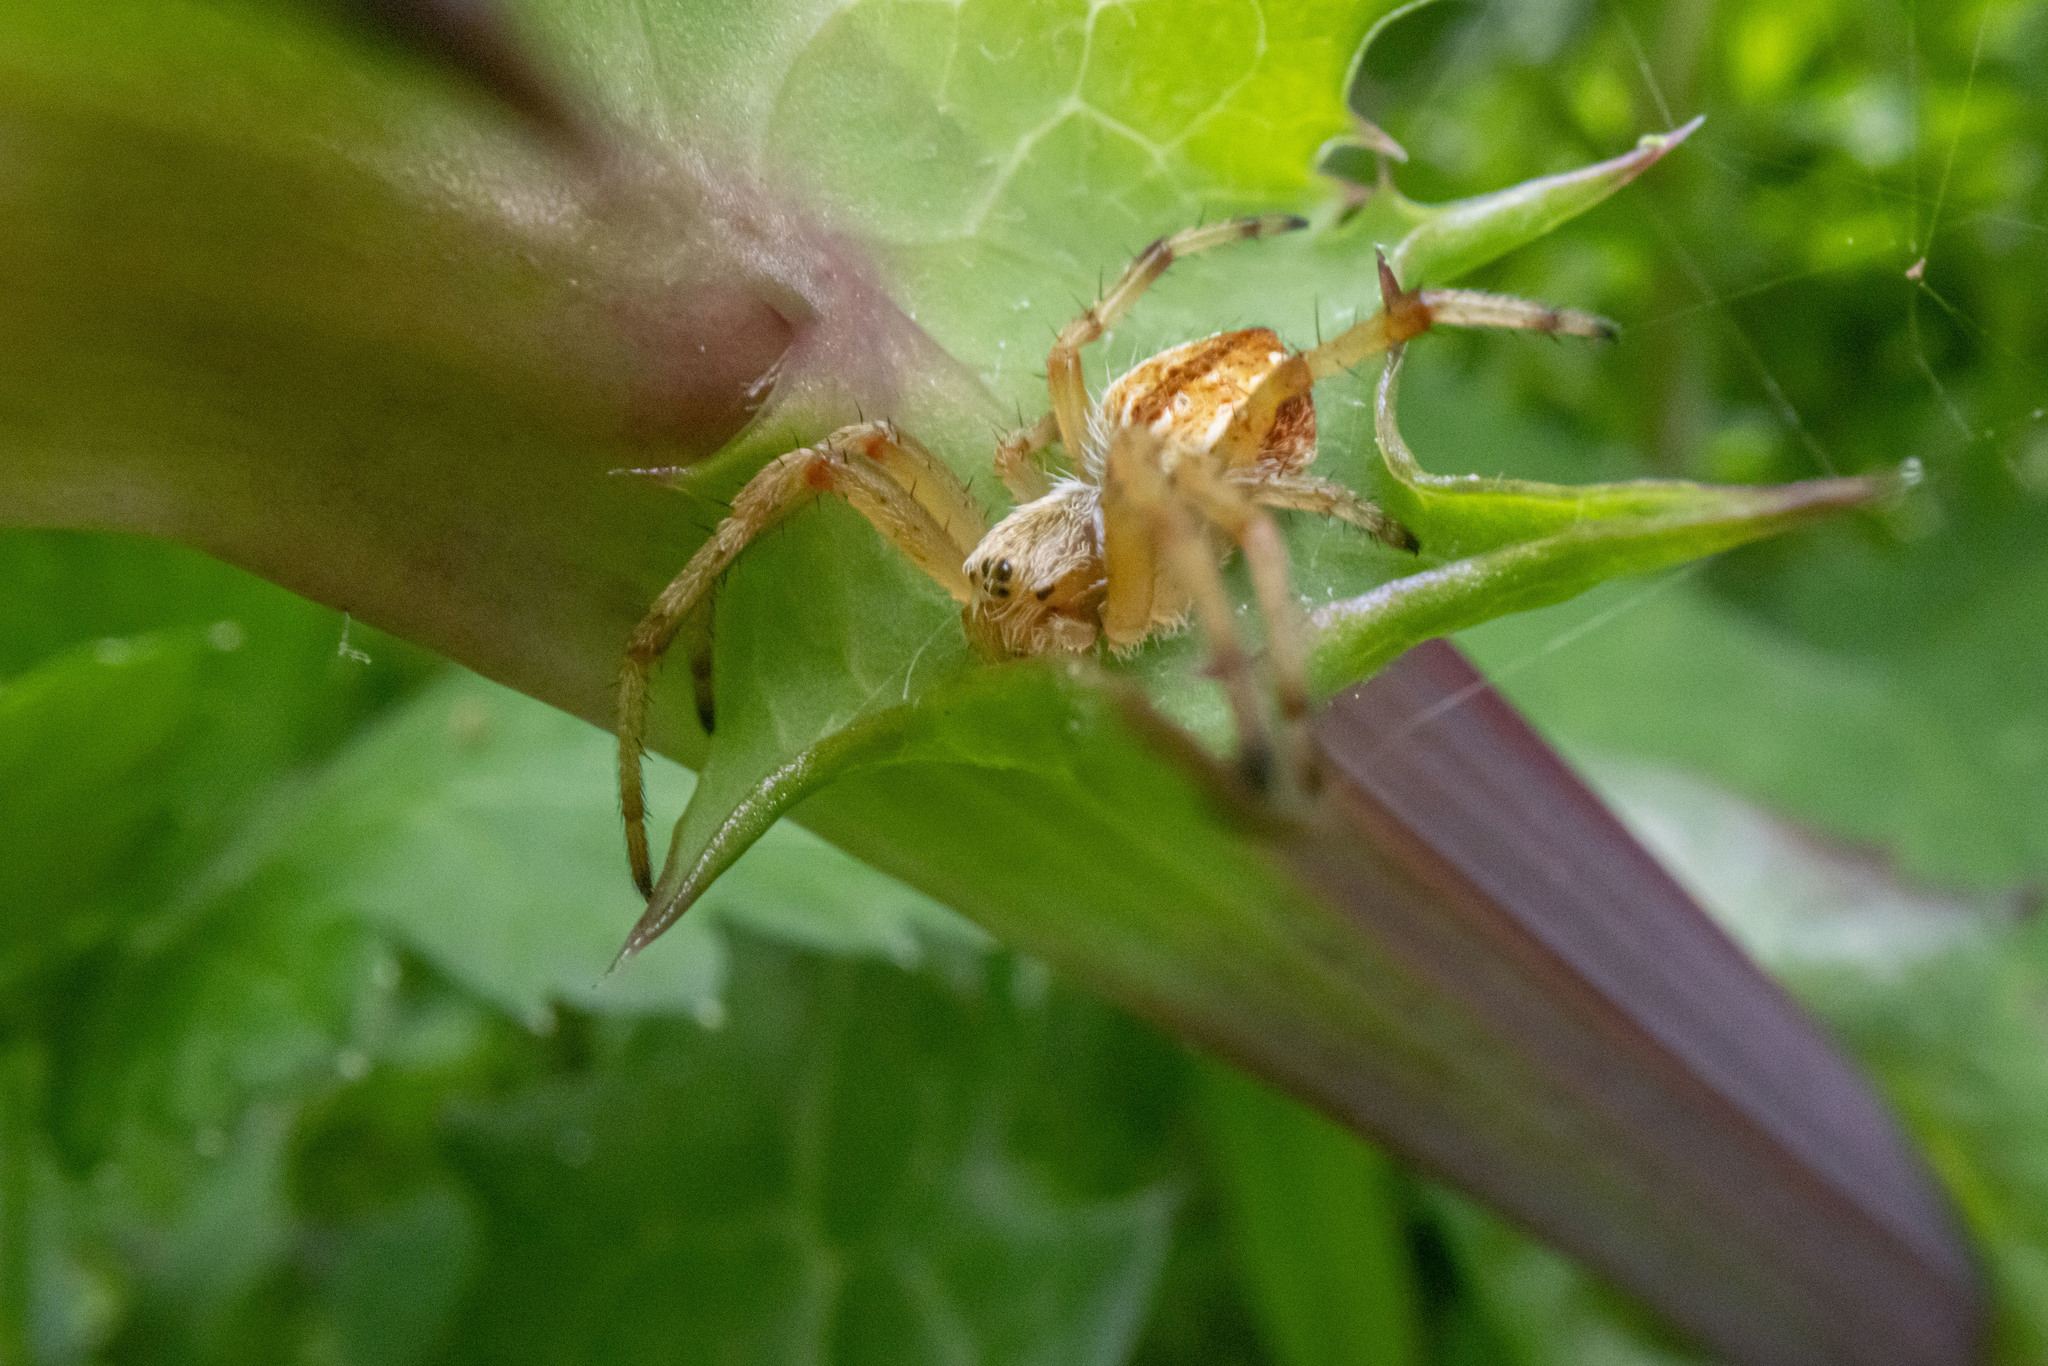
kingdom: Animalia
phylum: Arthropoda
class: Arachnida
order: Araneae
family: Araneidae
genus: Salsa
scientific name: Salsa fuliginata
